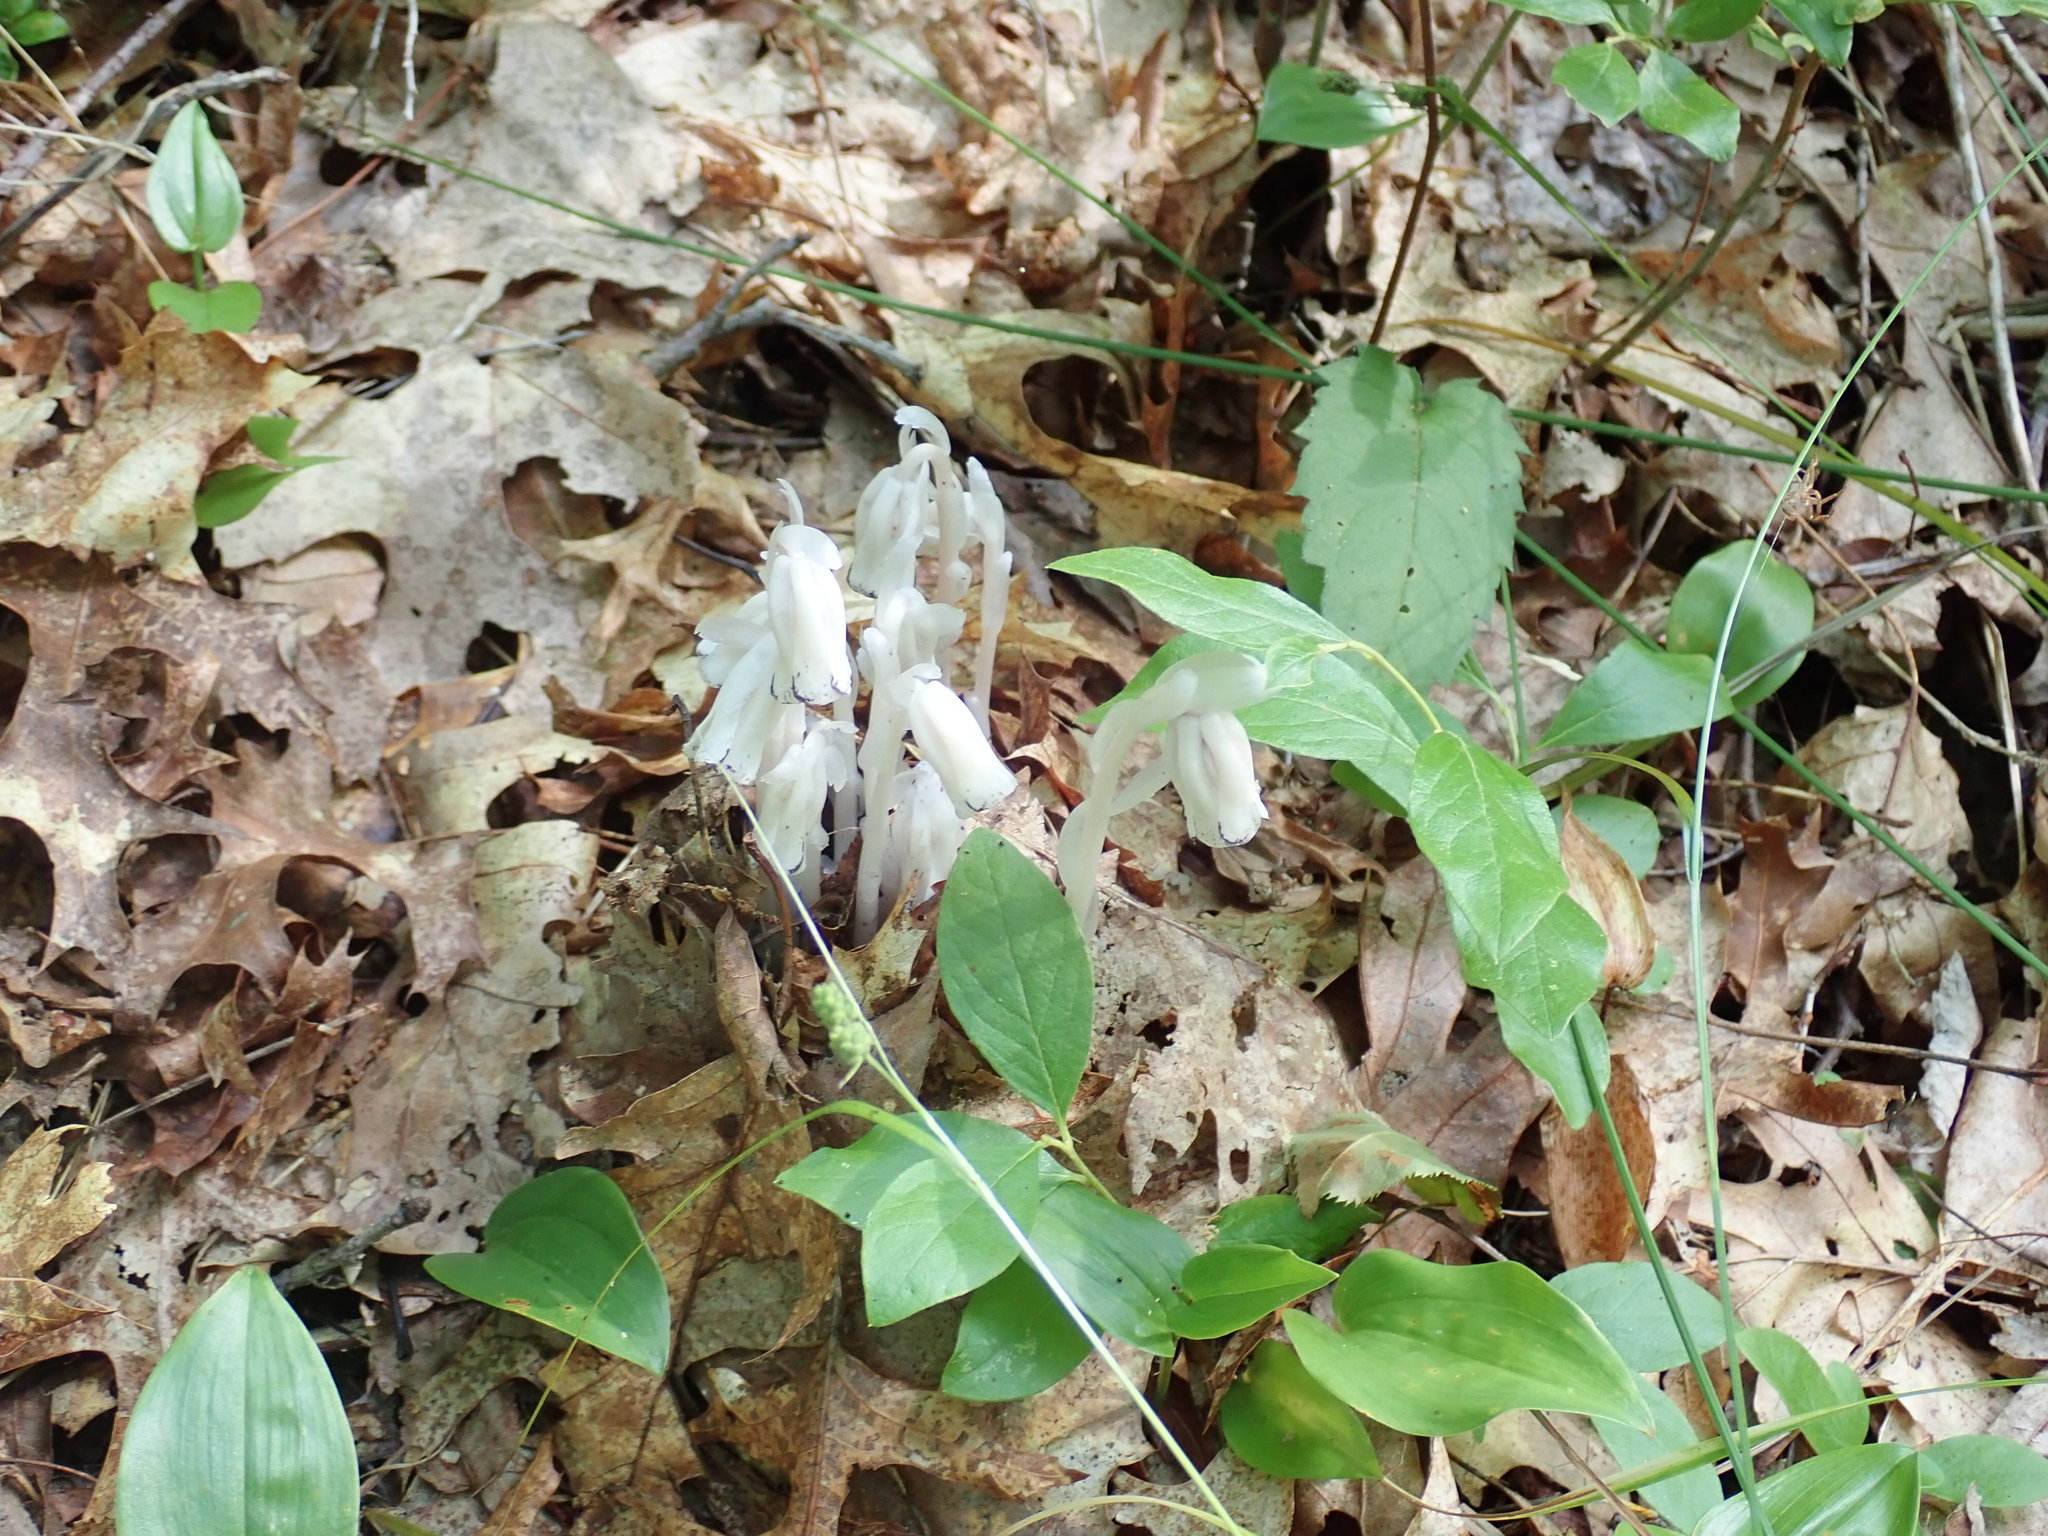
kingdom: Plantae
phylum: Tracheophyta
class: Magnoliopsida
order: Ericales
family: Ericaceae
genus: Monotropa
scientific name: Monotropa uniflora
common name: Convulsion root
